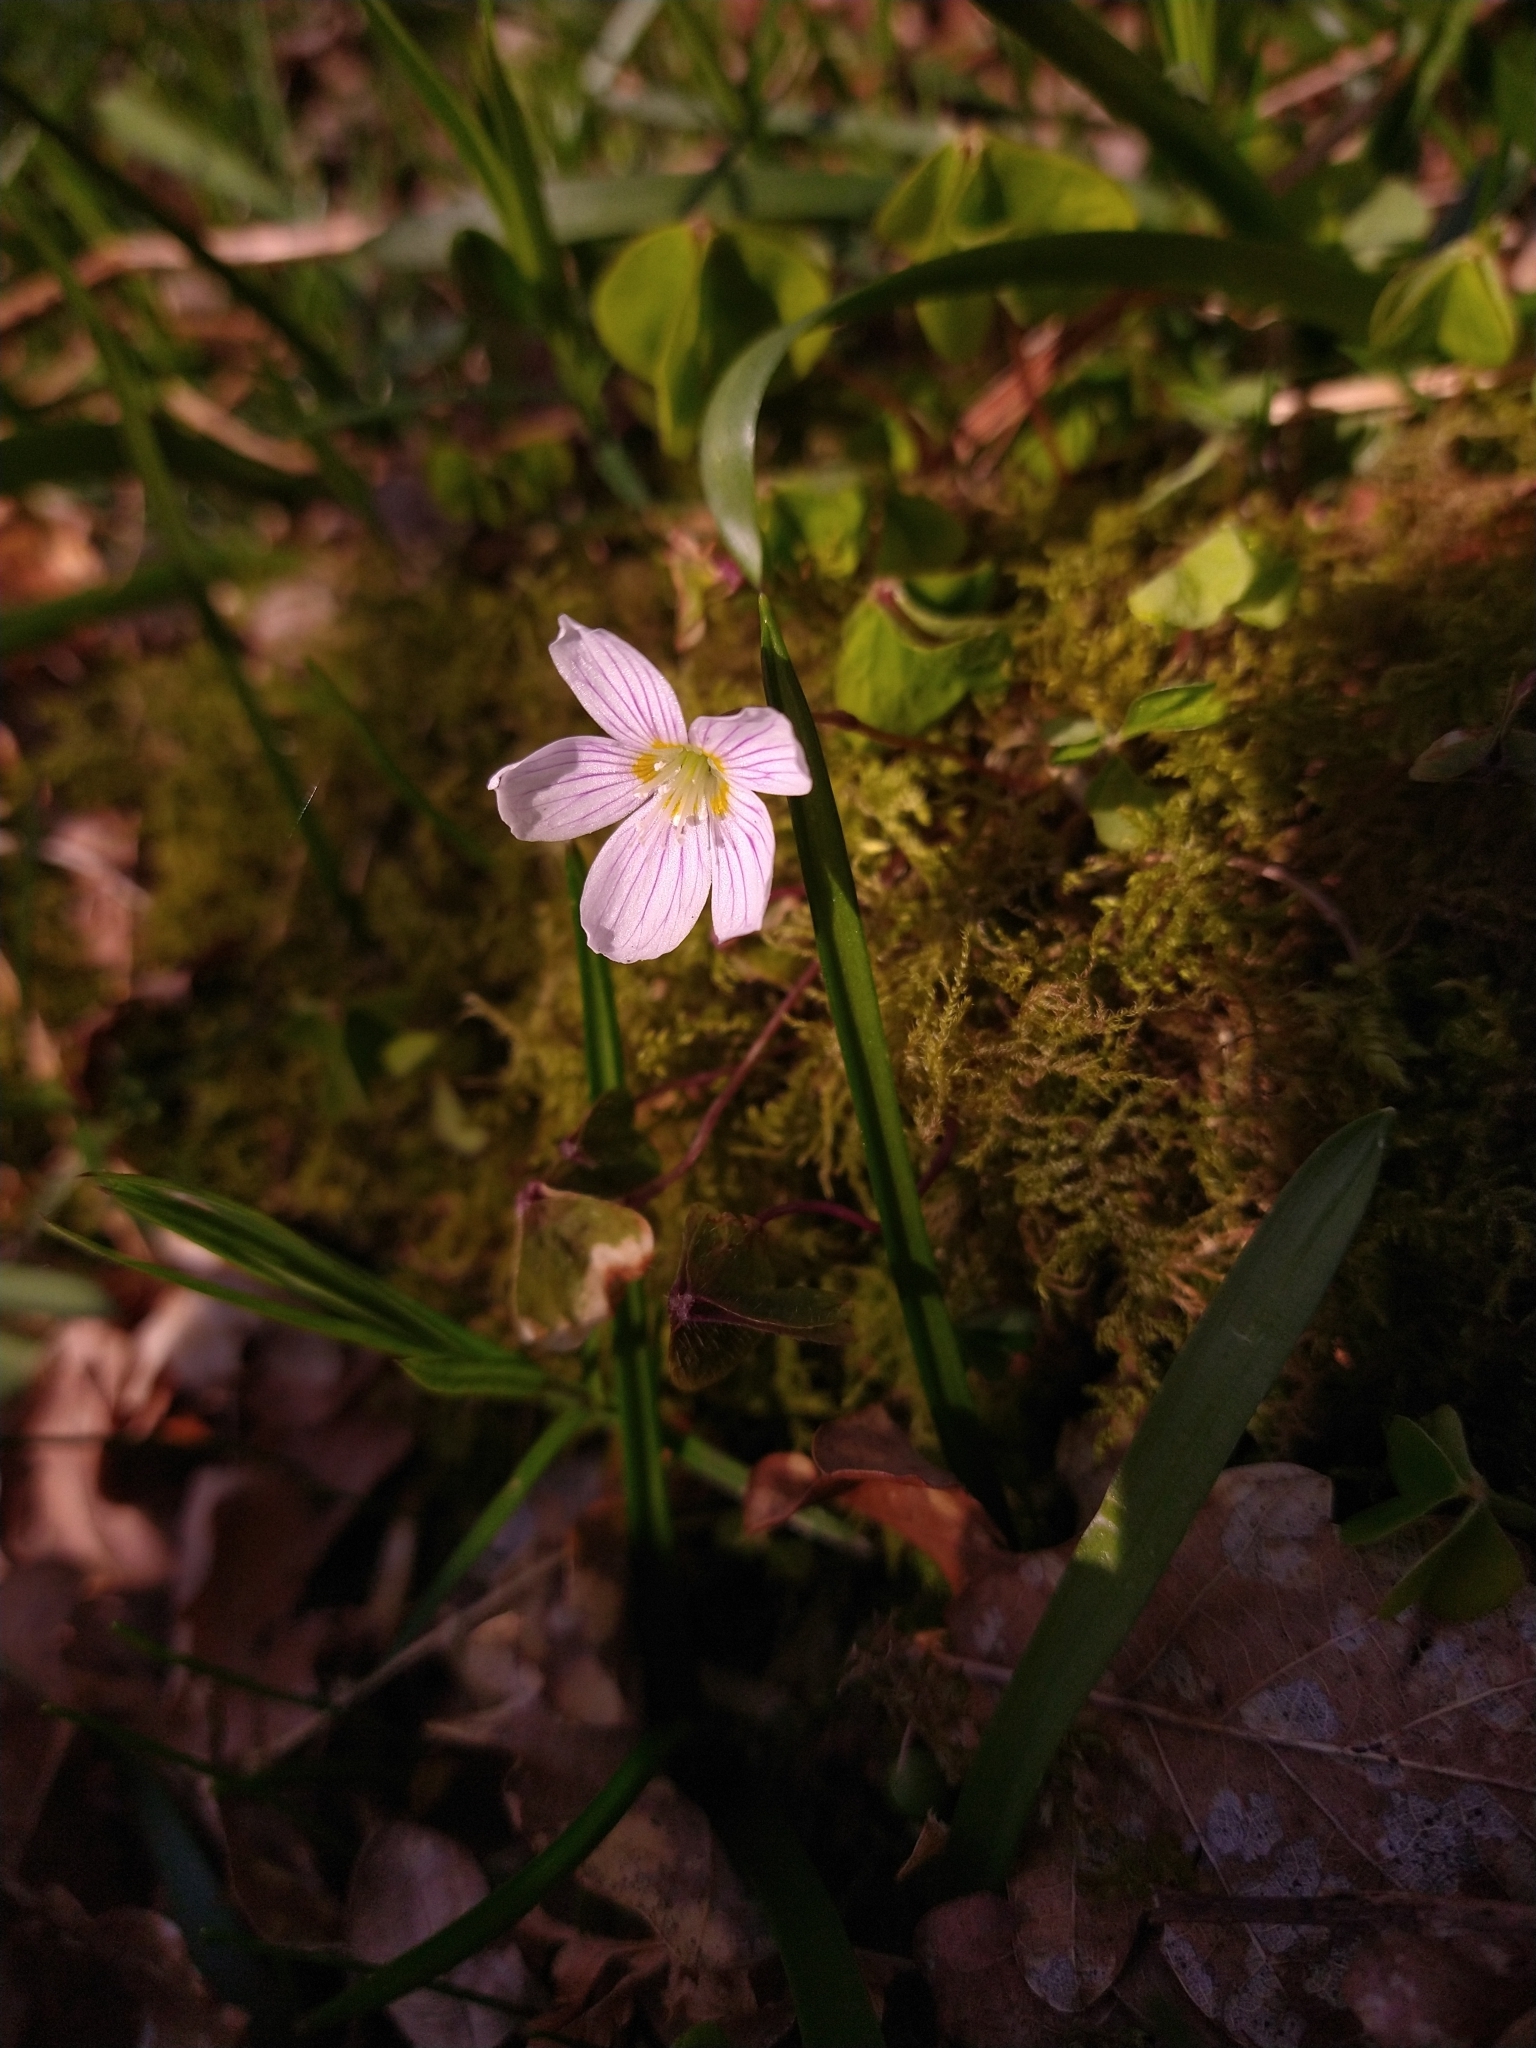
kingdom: Plantae
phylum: Tracheophyta
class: Magnoliopsida
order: Oxalidales
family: Oxalidaceae
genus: Oxalis
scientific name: Oxalis acetosella
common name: Wood-sorrel
